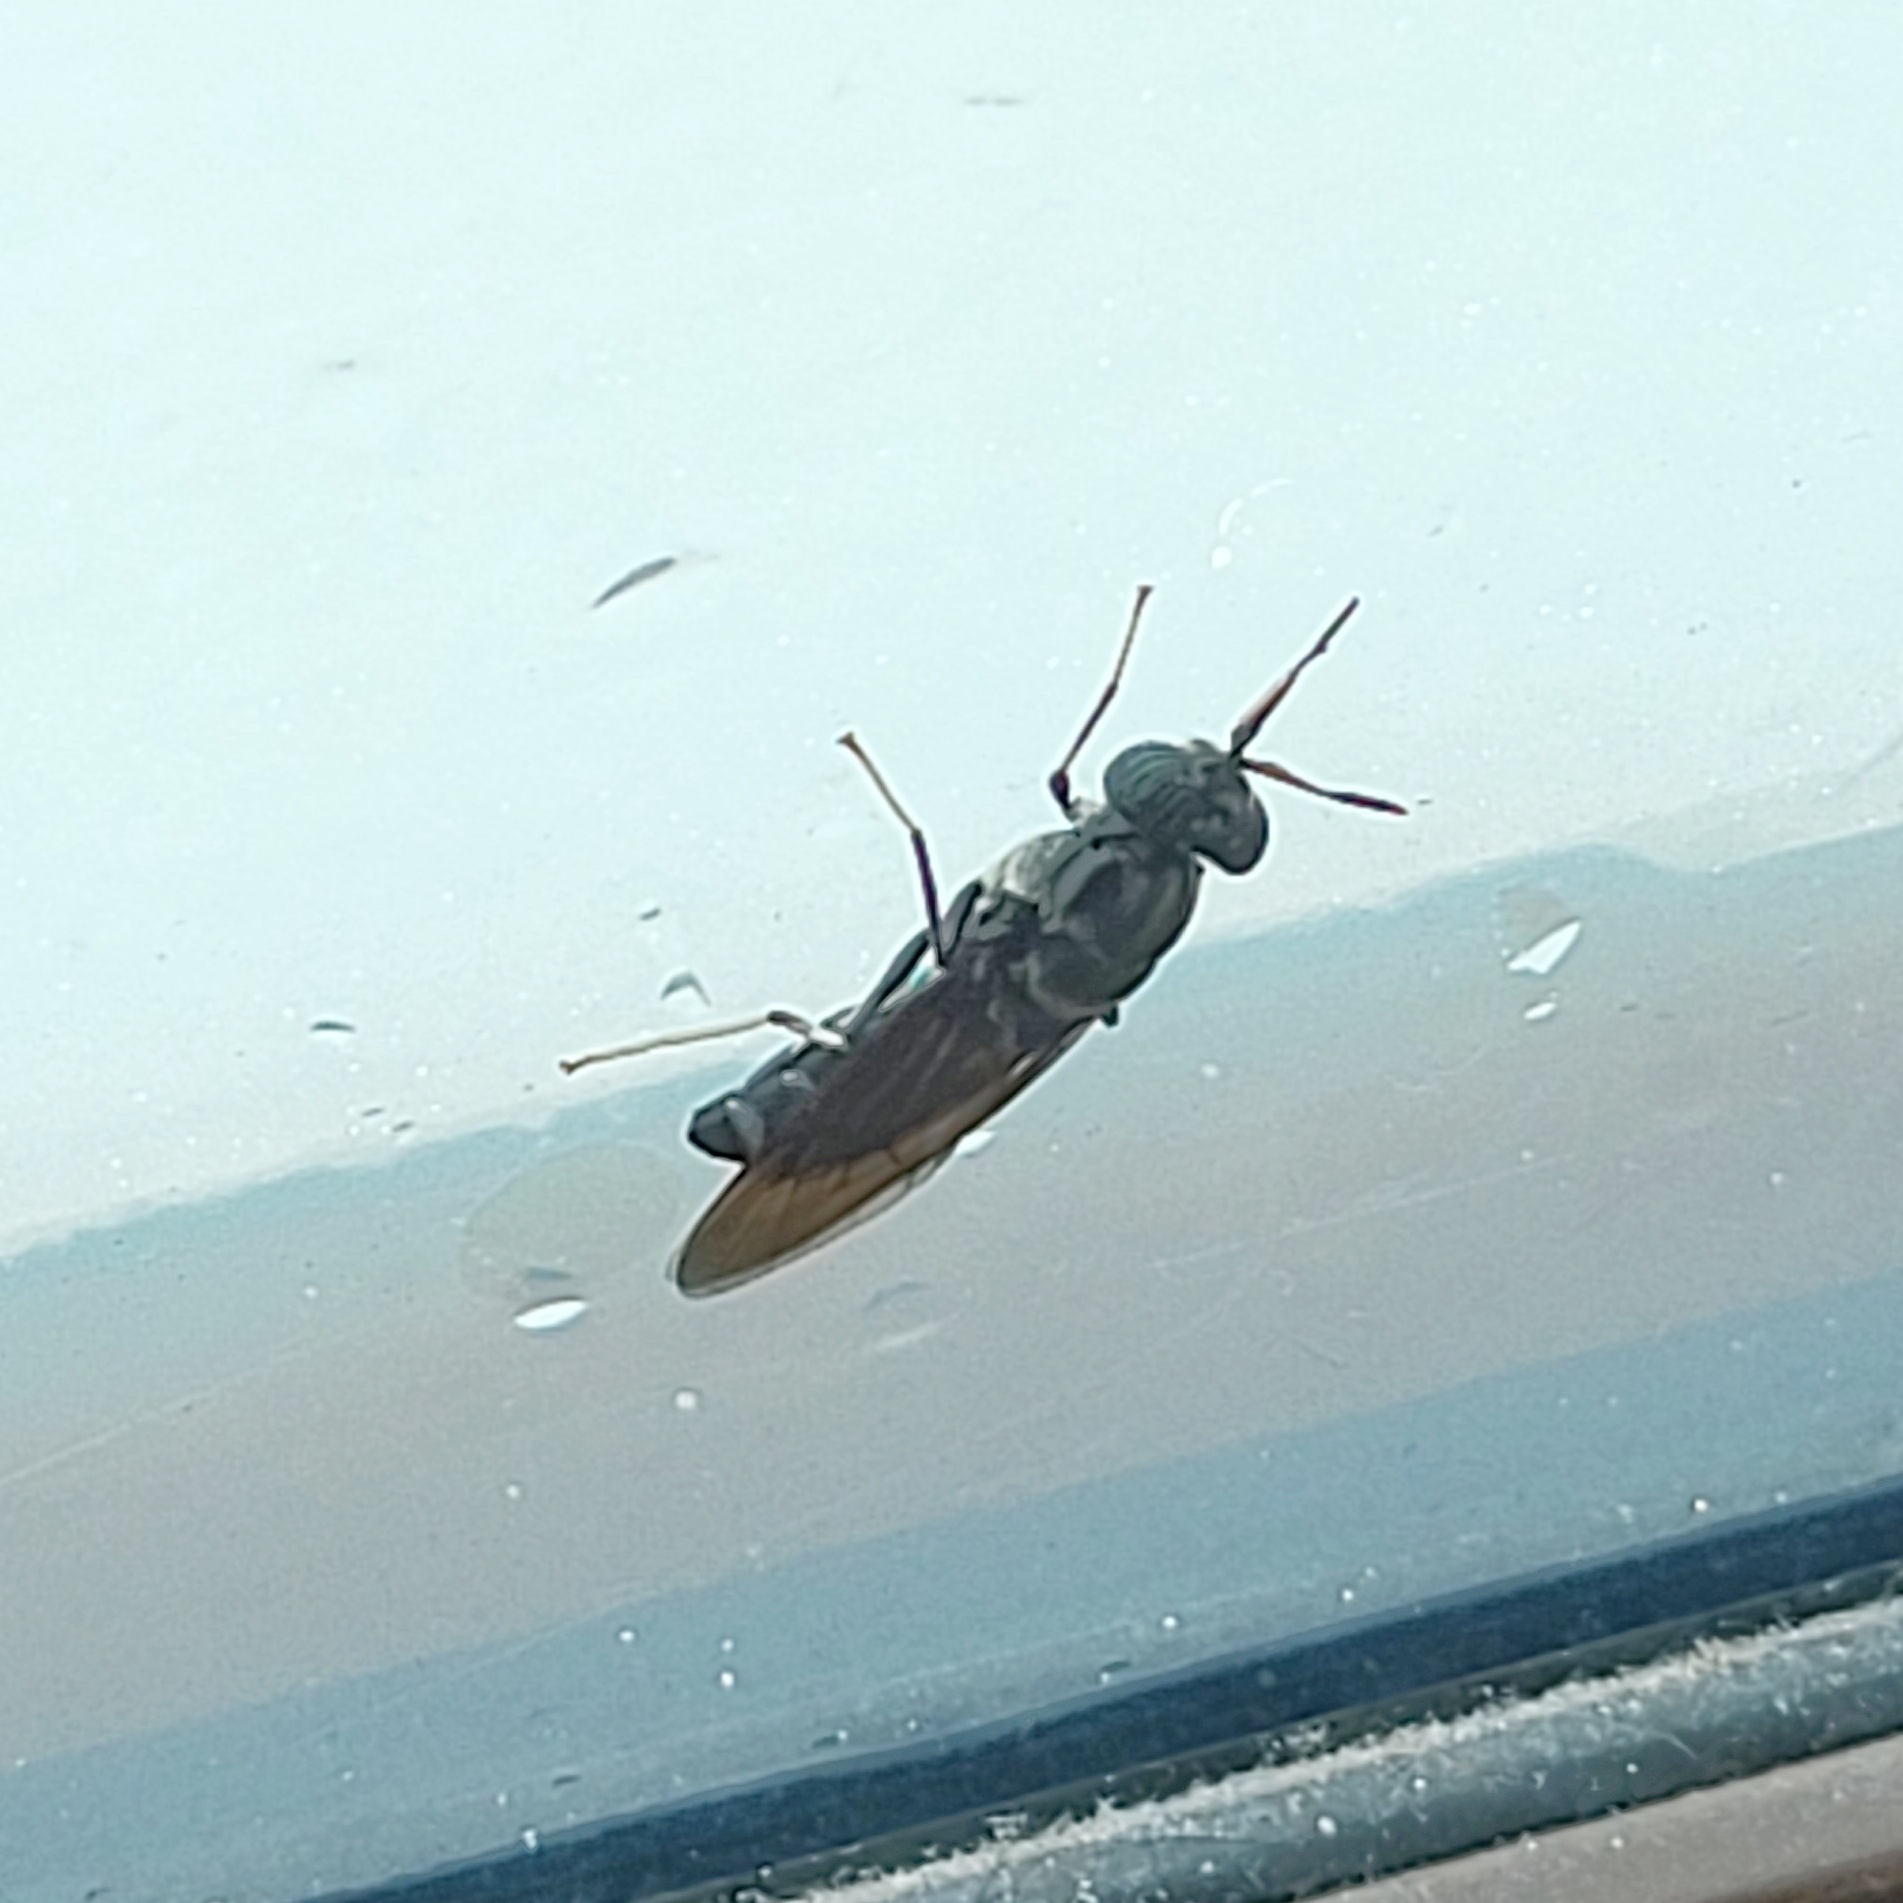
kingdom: Animalia
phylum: Arthropoda
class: Insecta
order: Diptera
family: Stratiomyidae
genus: Hermetia
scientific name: Hermetia illucens
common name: Black soldier fly
